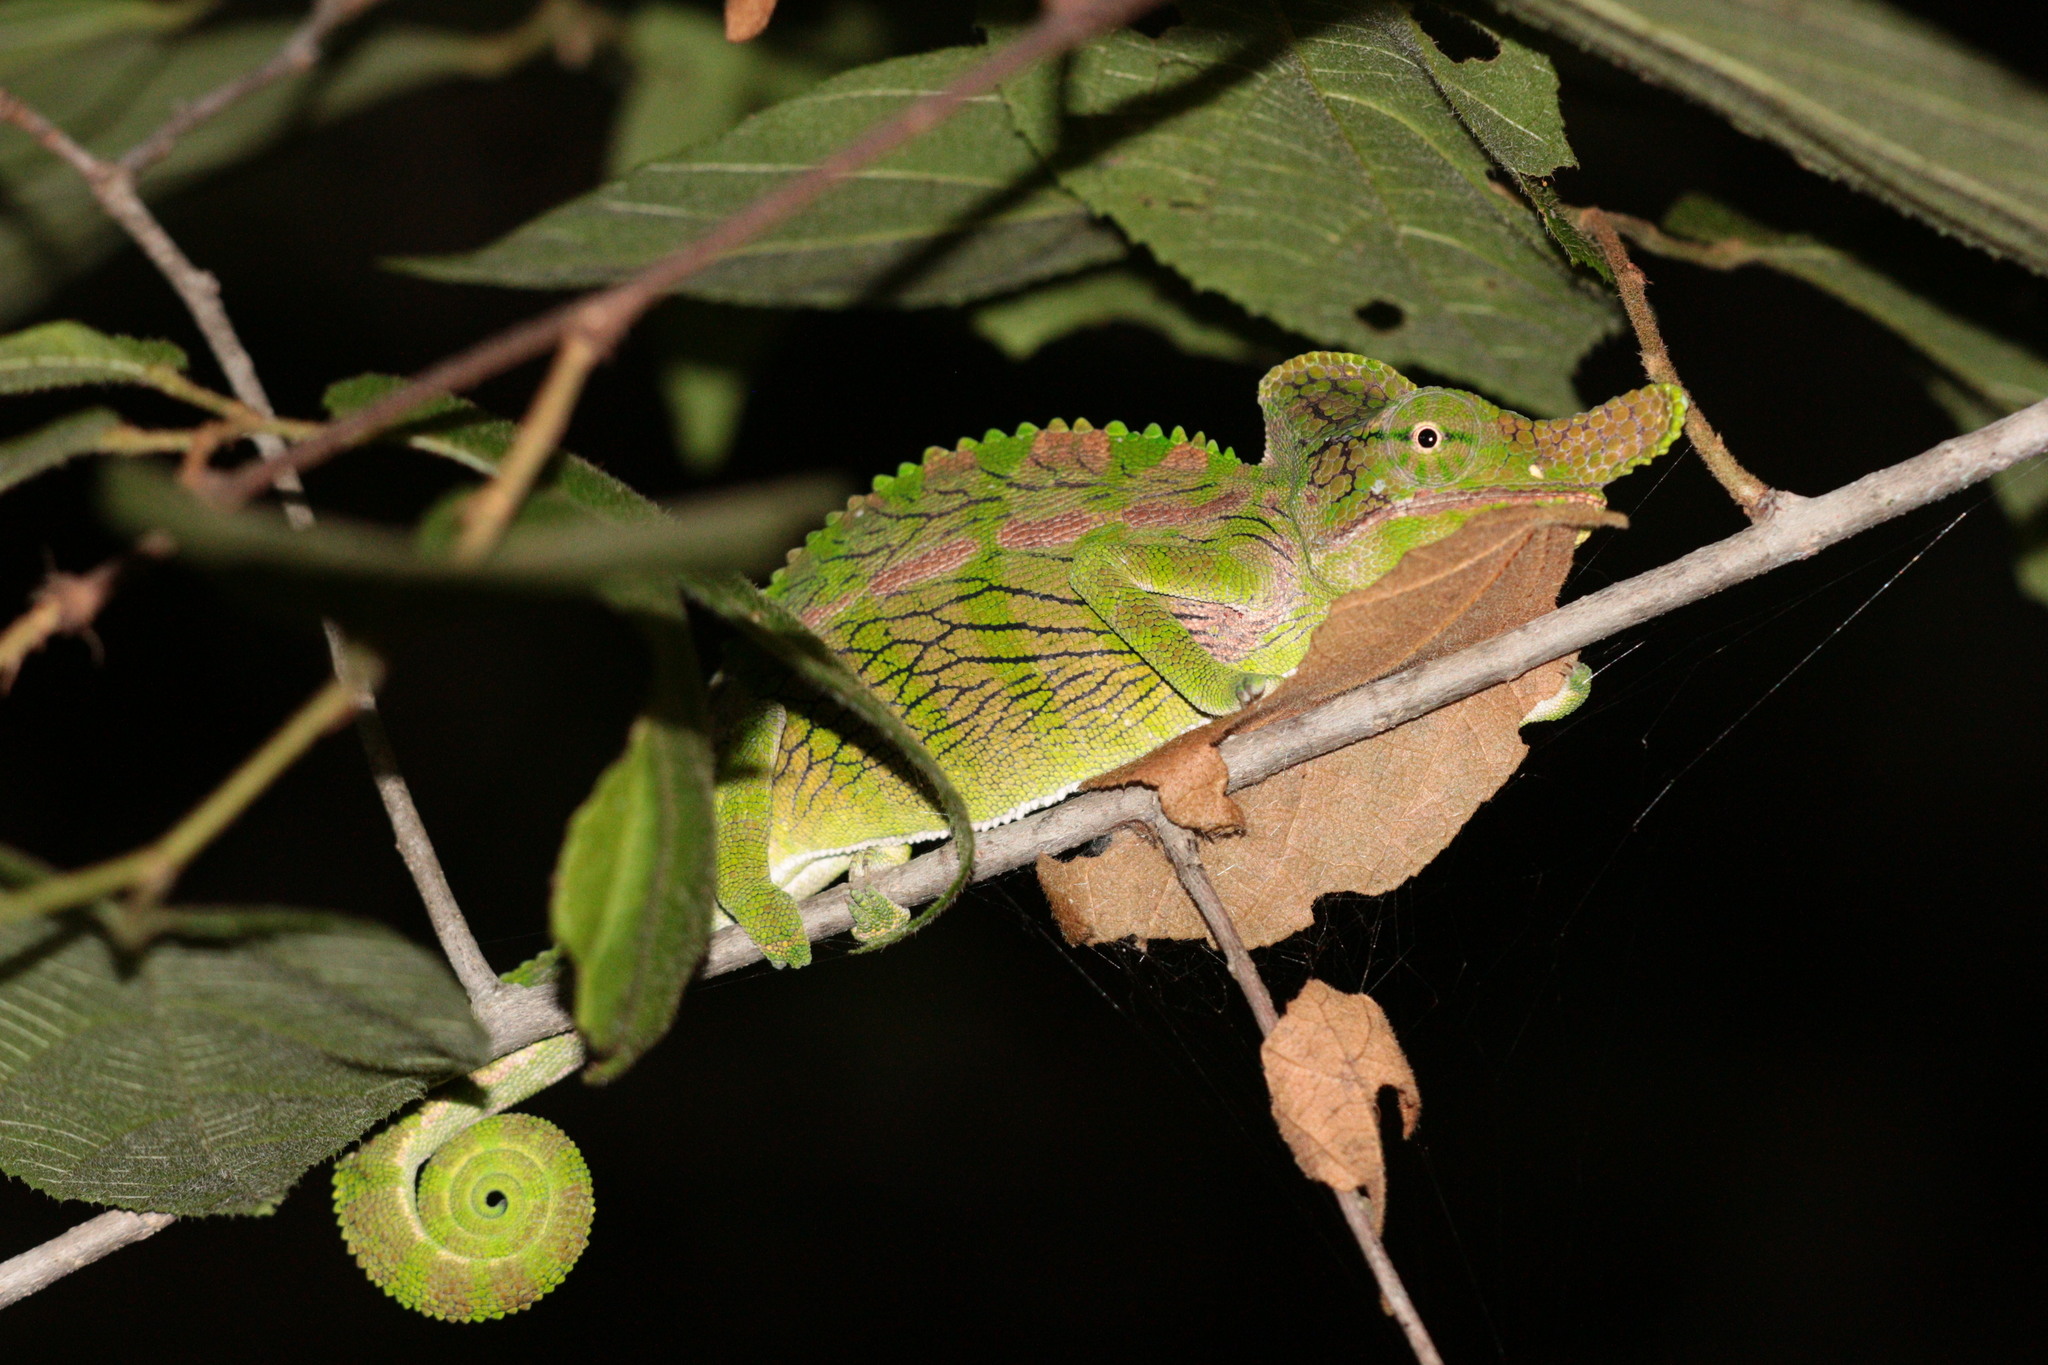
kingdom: Animalia
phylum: Chordata
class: Squamata
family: Chamaeleonidae
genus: Furcifer
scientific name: Furcifer labordi
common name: Laborde's chameleon
